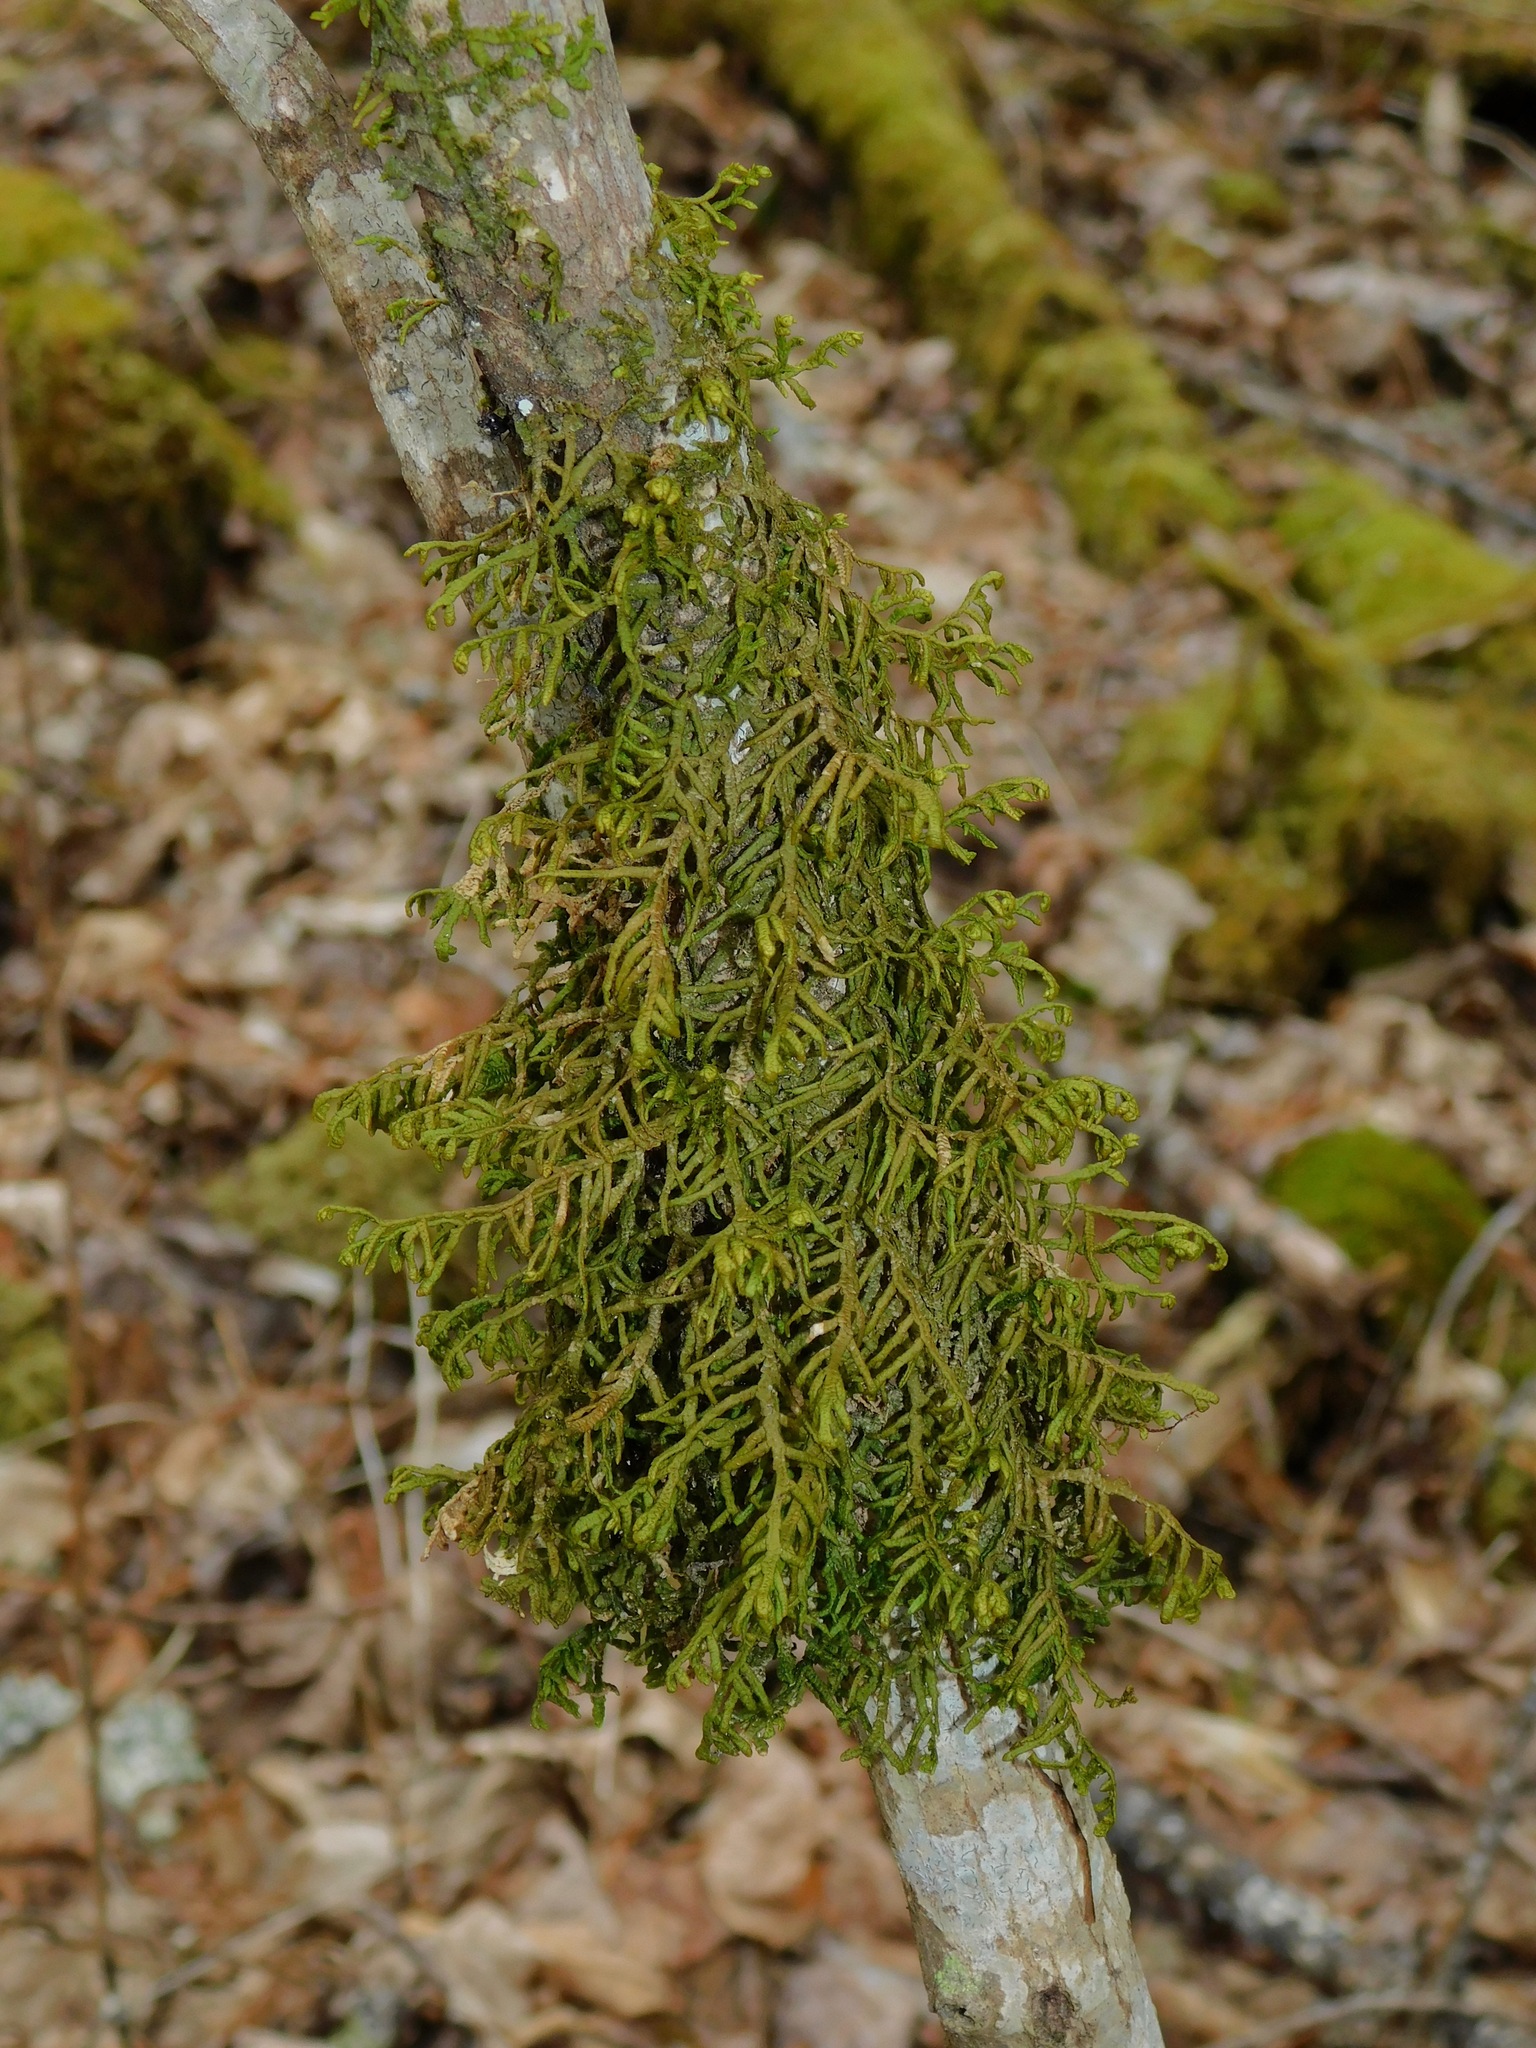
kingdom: Plantae
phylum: Marchantiophyta
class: Jungermanniopsida
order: Porellales
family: Porellaceae
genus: Porella
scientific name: Porella platyphylla
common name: Wall scalewort
